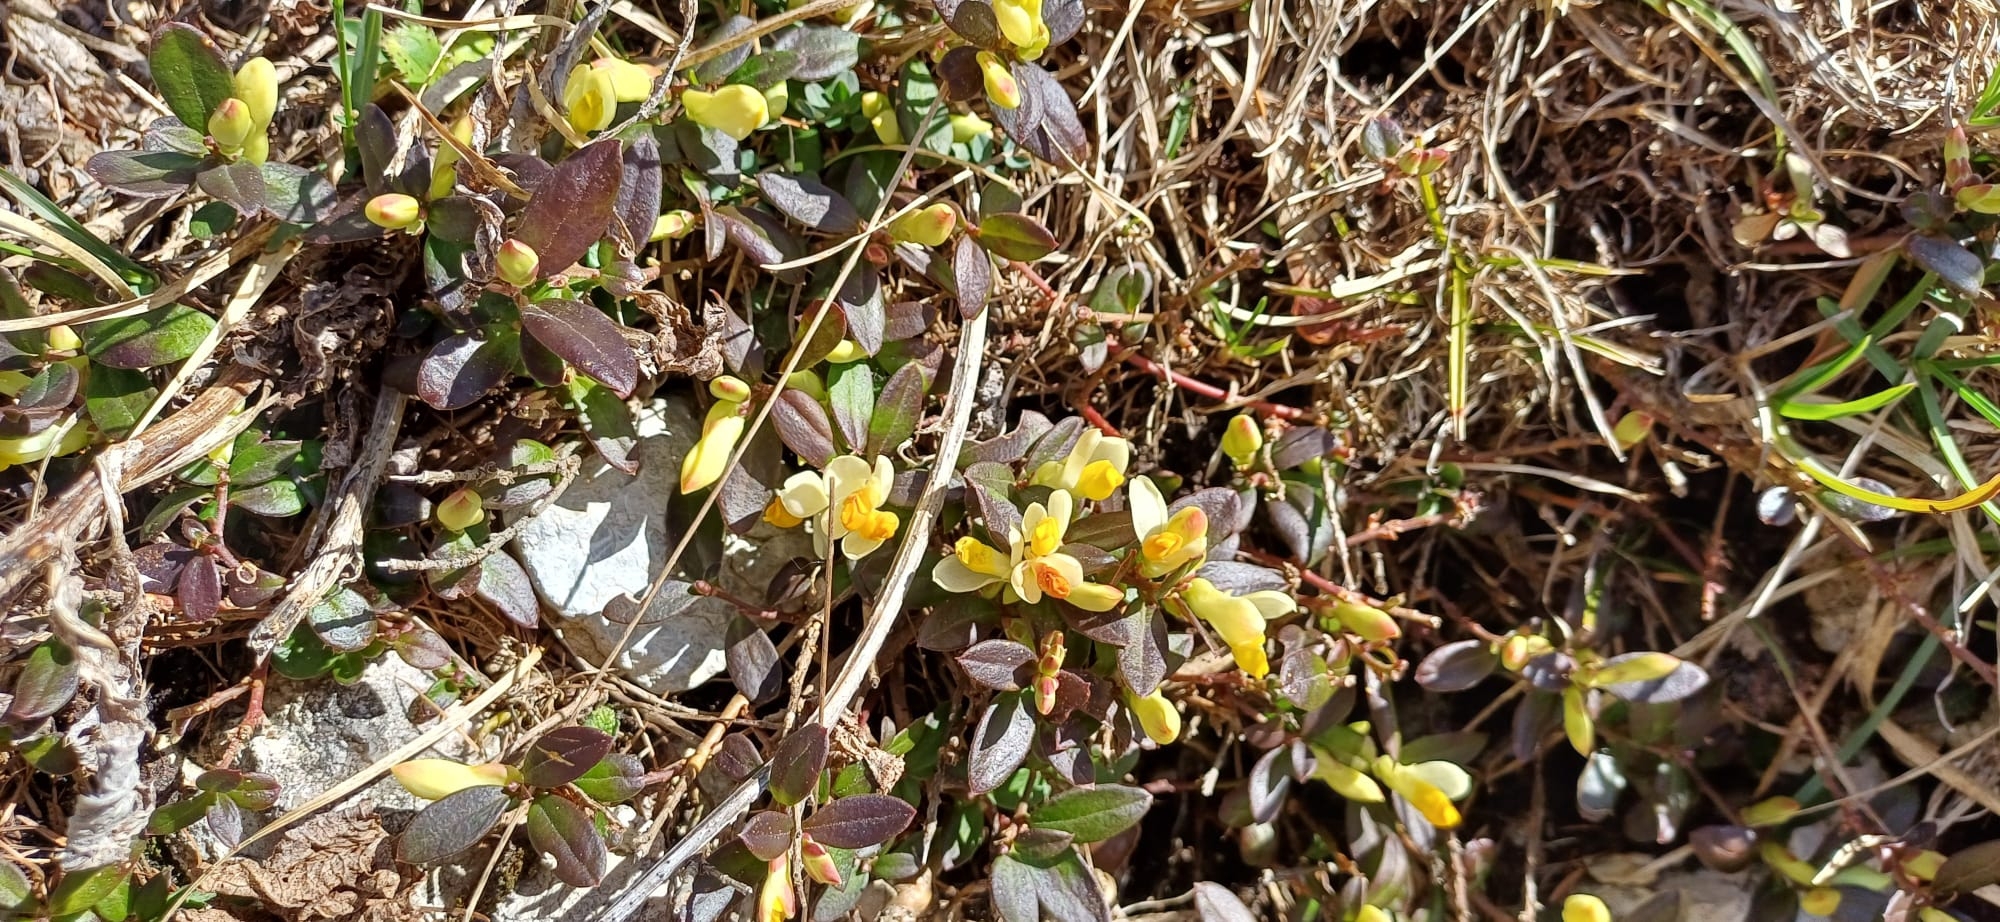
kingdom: Plantae
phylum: Tracheophyta
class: Magnoliopsida
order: Fabales
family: Polygalaceae
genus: Polygaloides
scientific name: Polygaloides chamaebuxus
